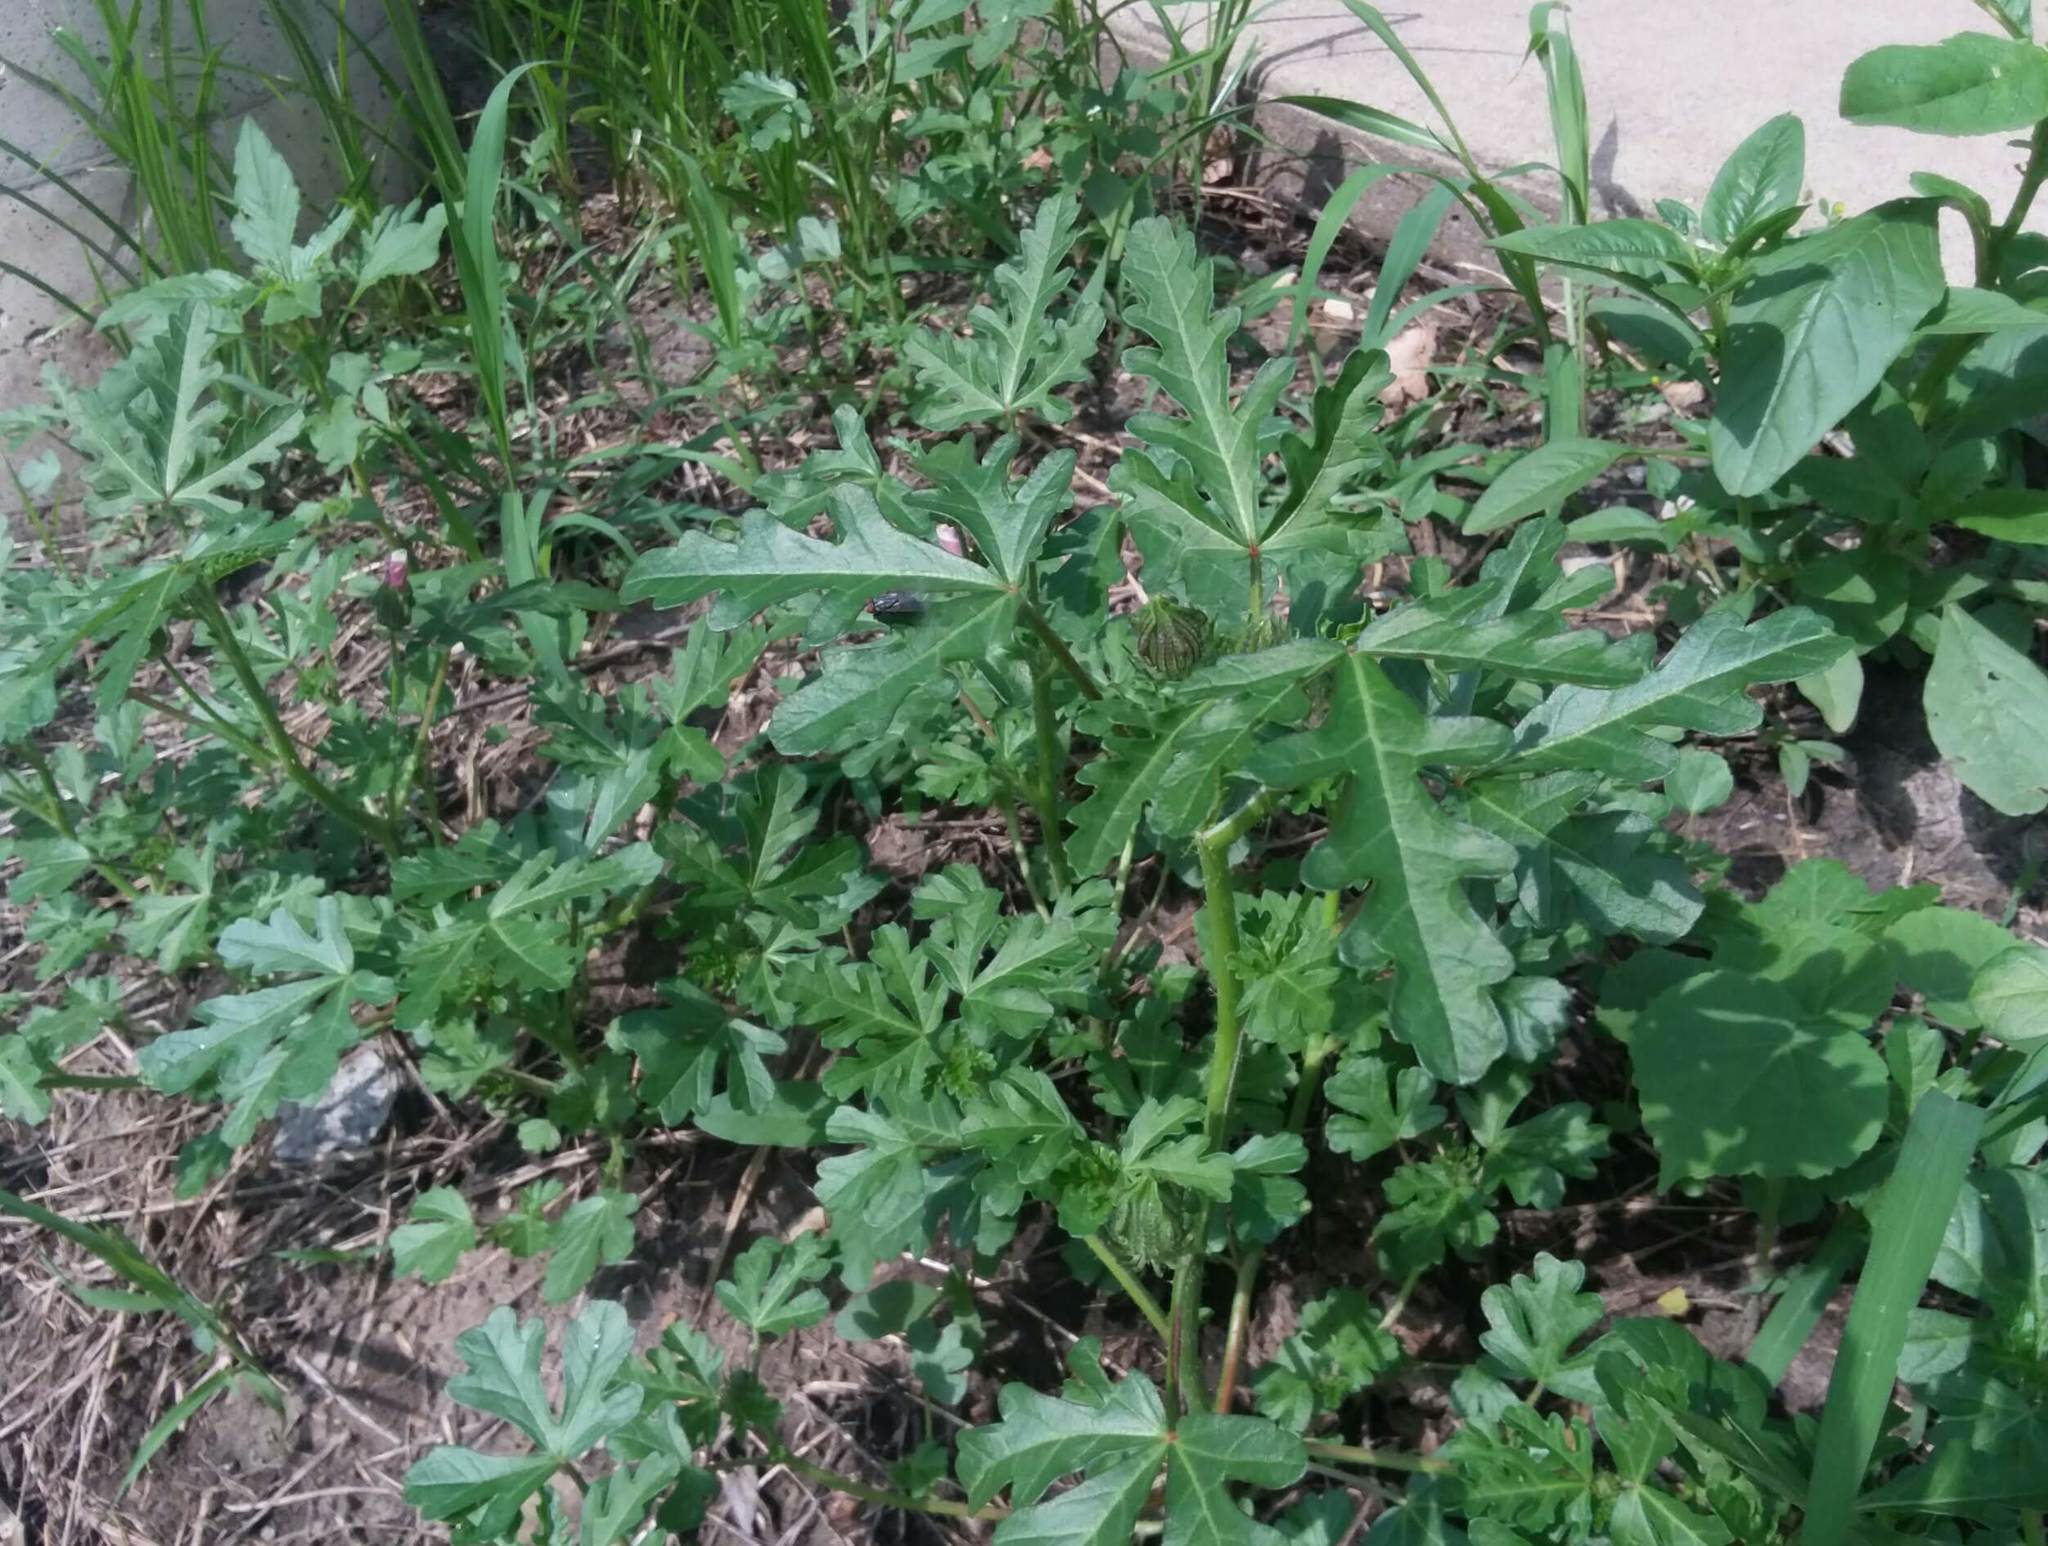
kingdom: Plantae
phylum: Tracheophyta
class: Magnoliopsida
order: Malvales
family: Malvaceae
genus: Hibiscus
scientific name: Hibiscus trionum
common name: Bladder ketmia
